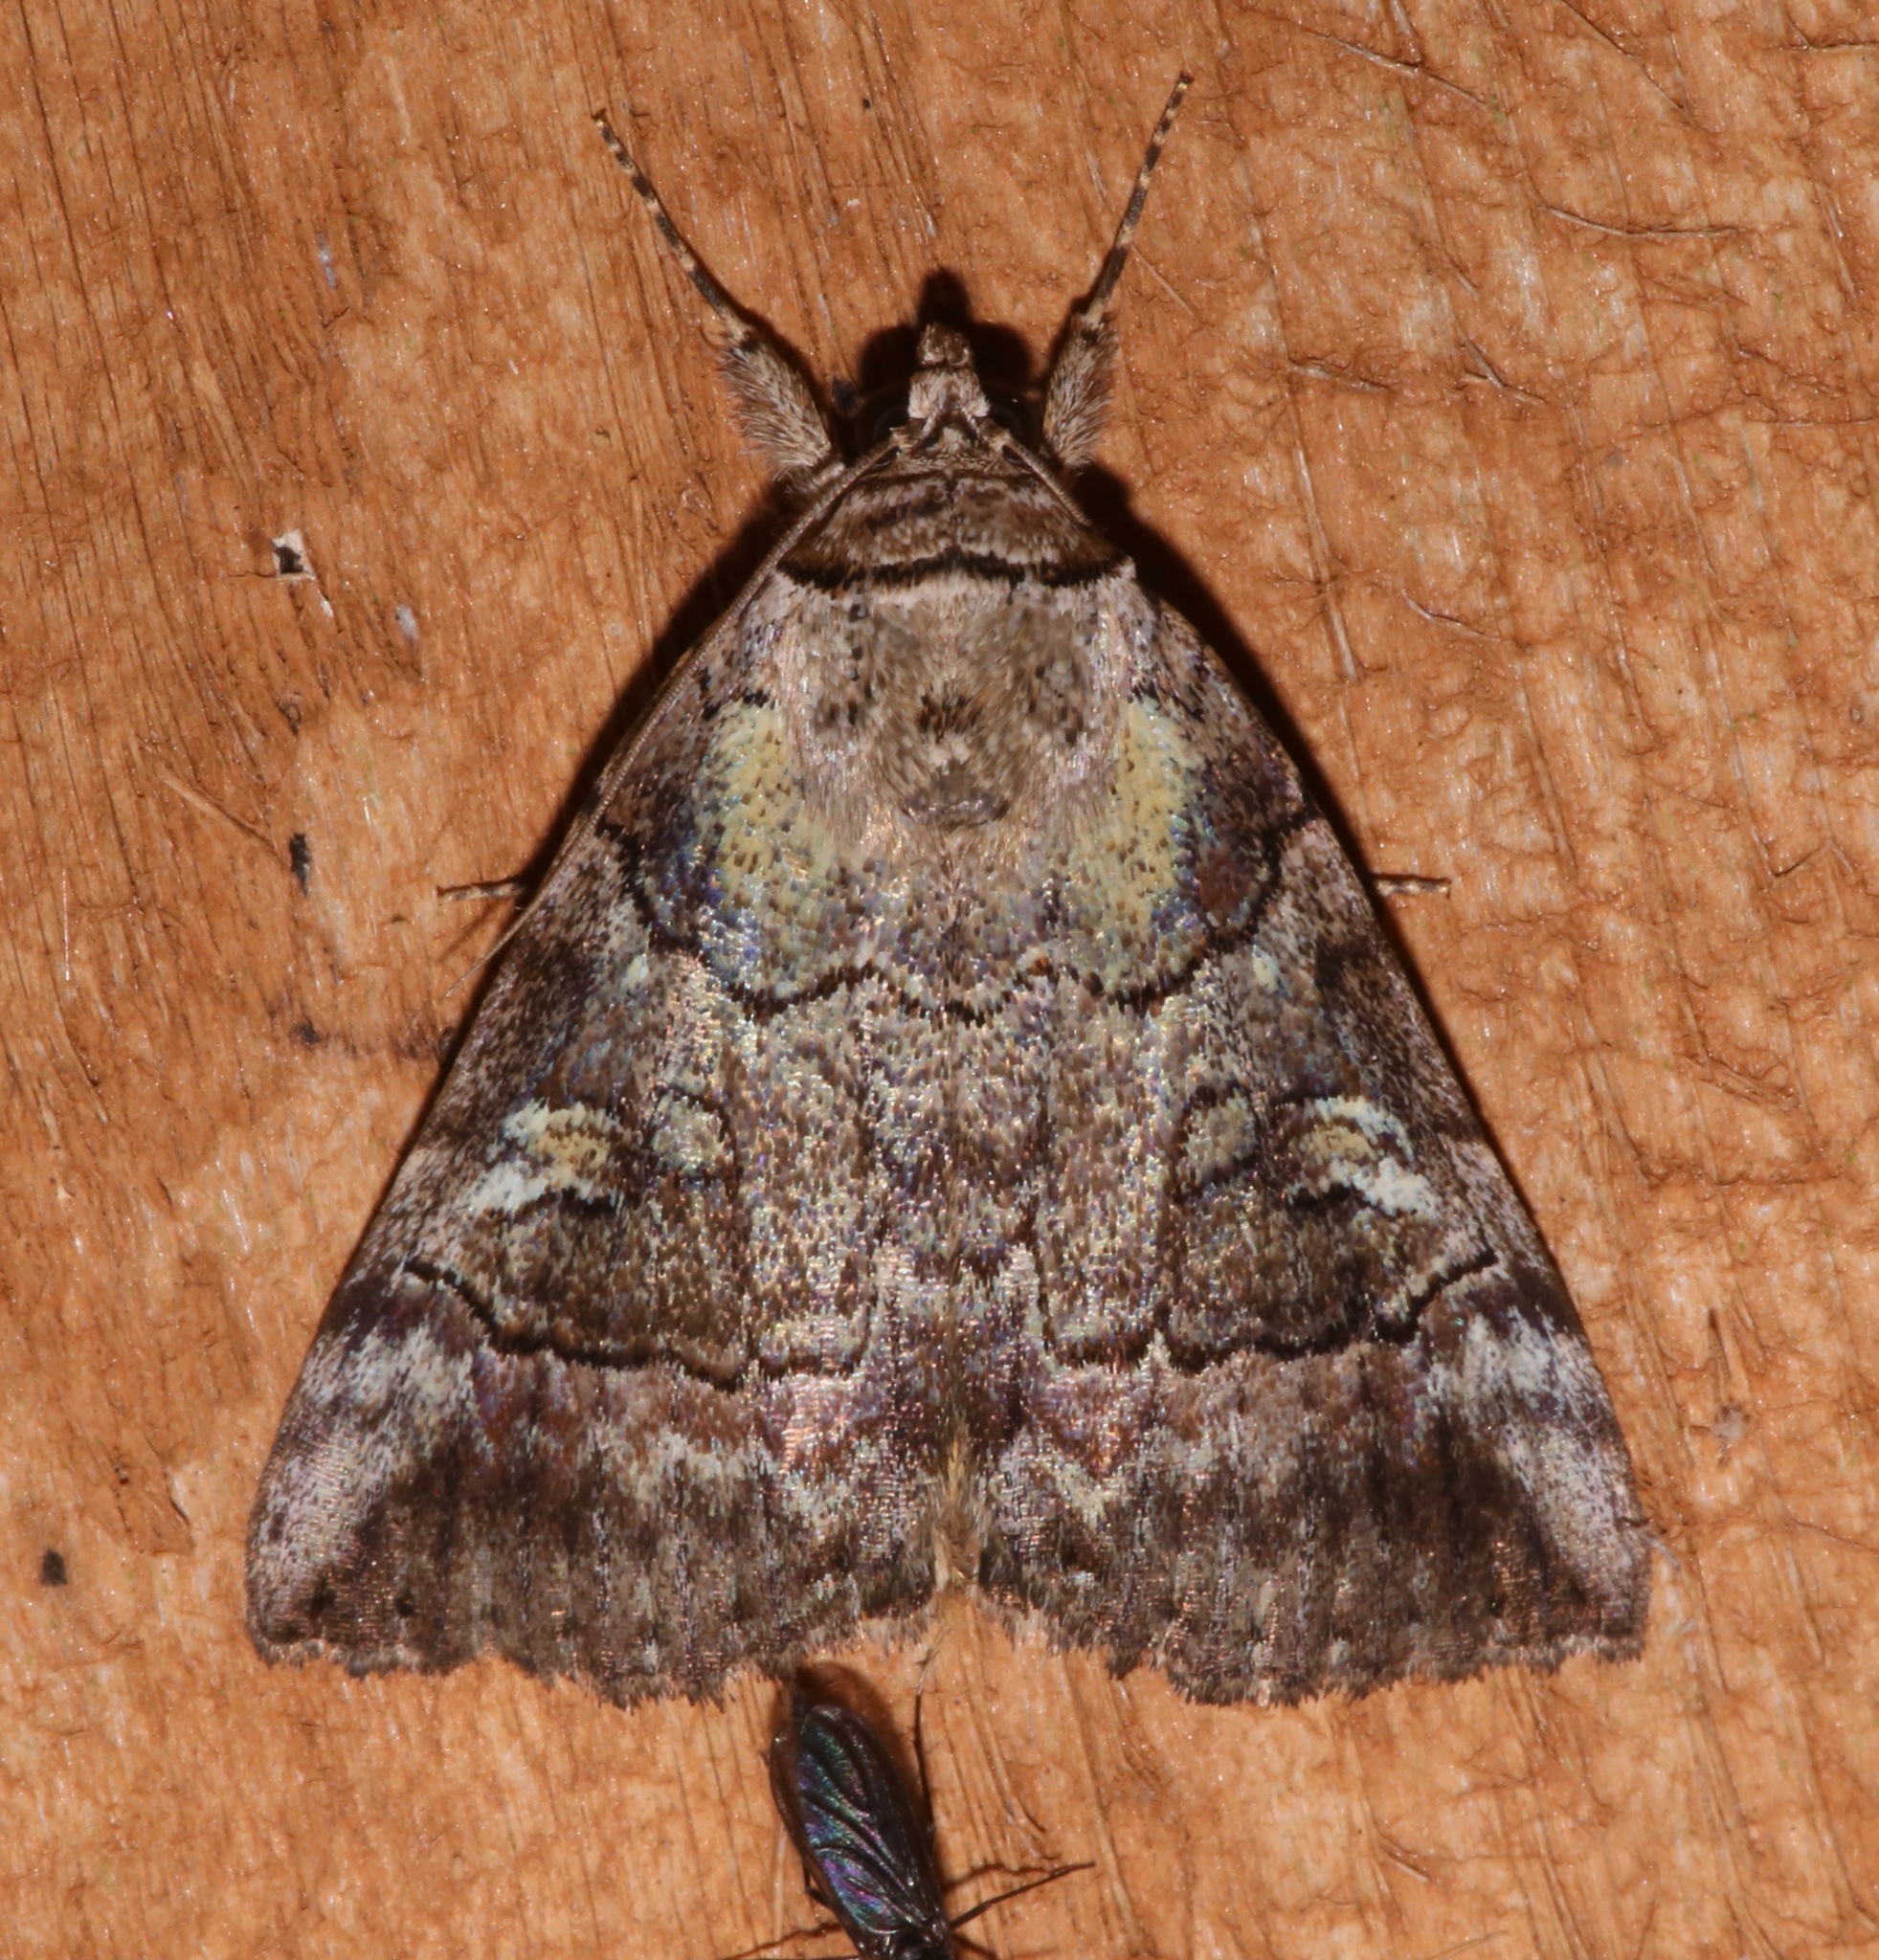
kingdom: Animalia
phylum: Arthropoda
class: Insecta
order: Lepidoptera
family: Erebidae
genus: Catocala
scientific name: Catocala similis
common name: Similar underwing
